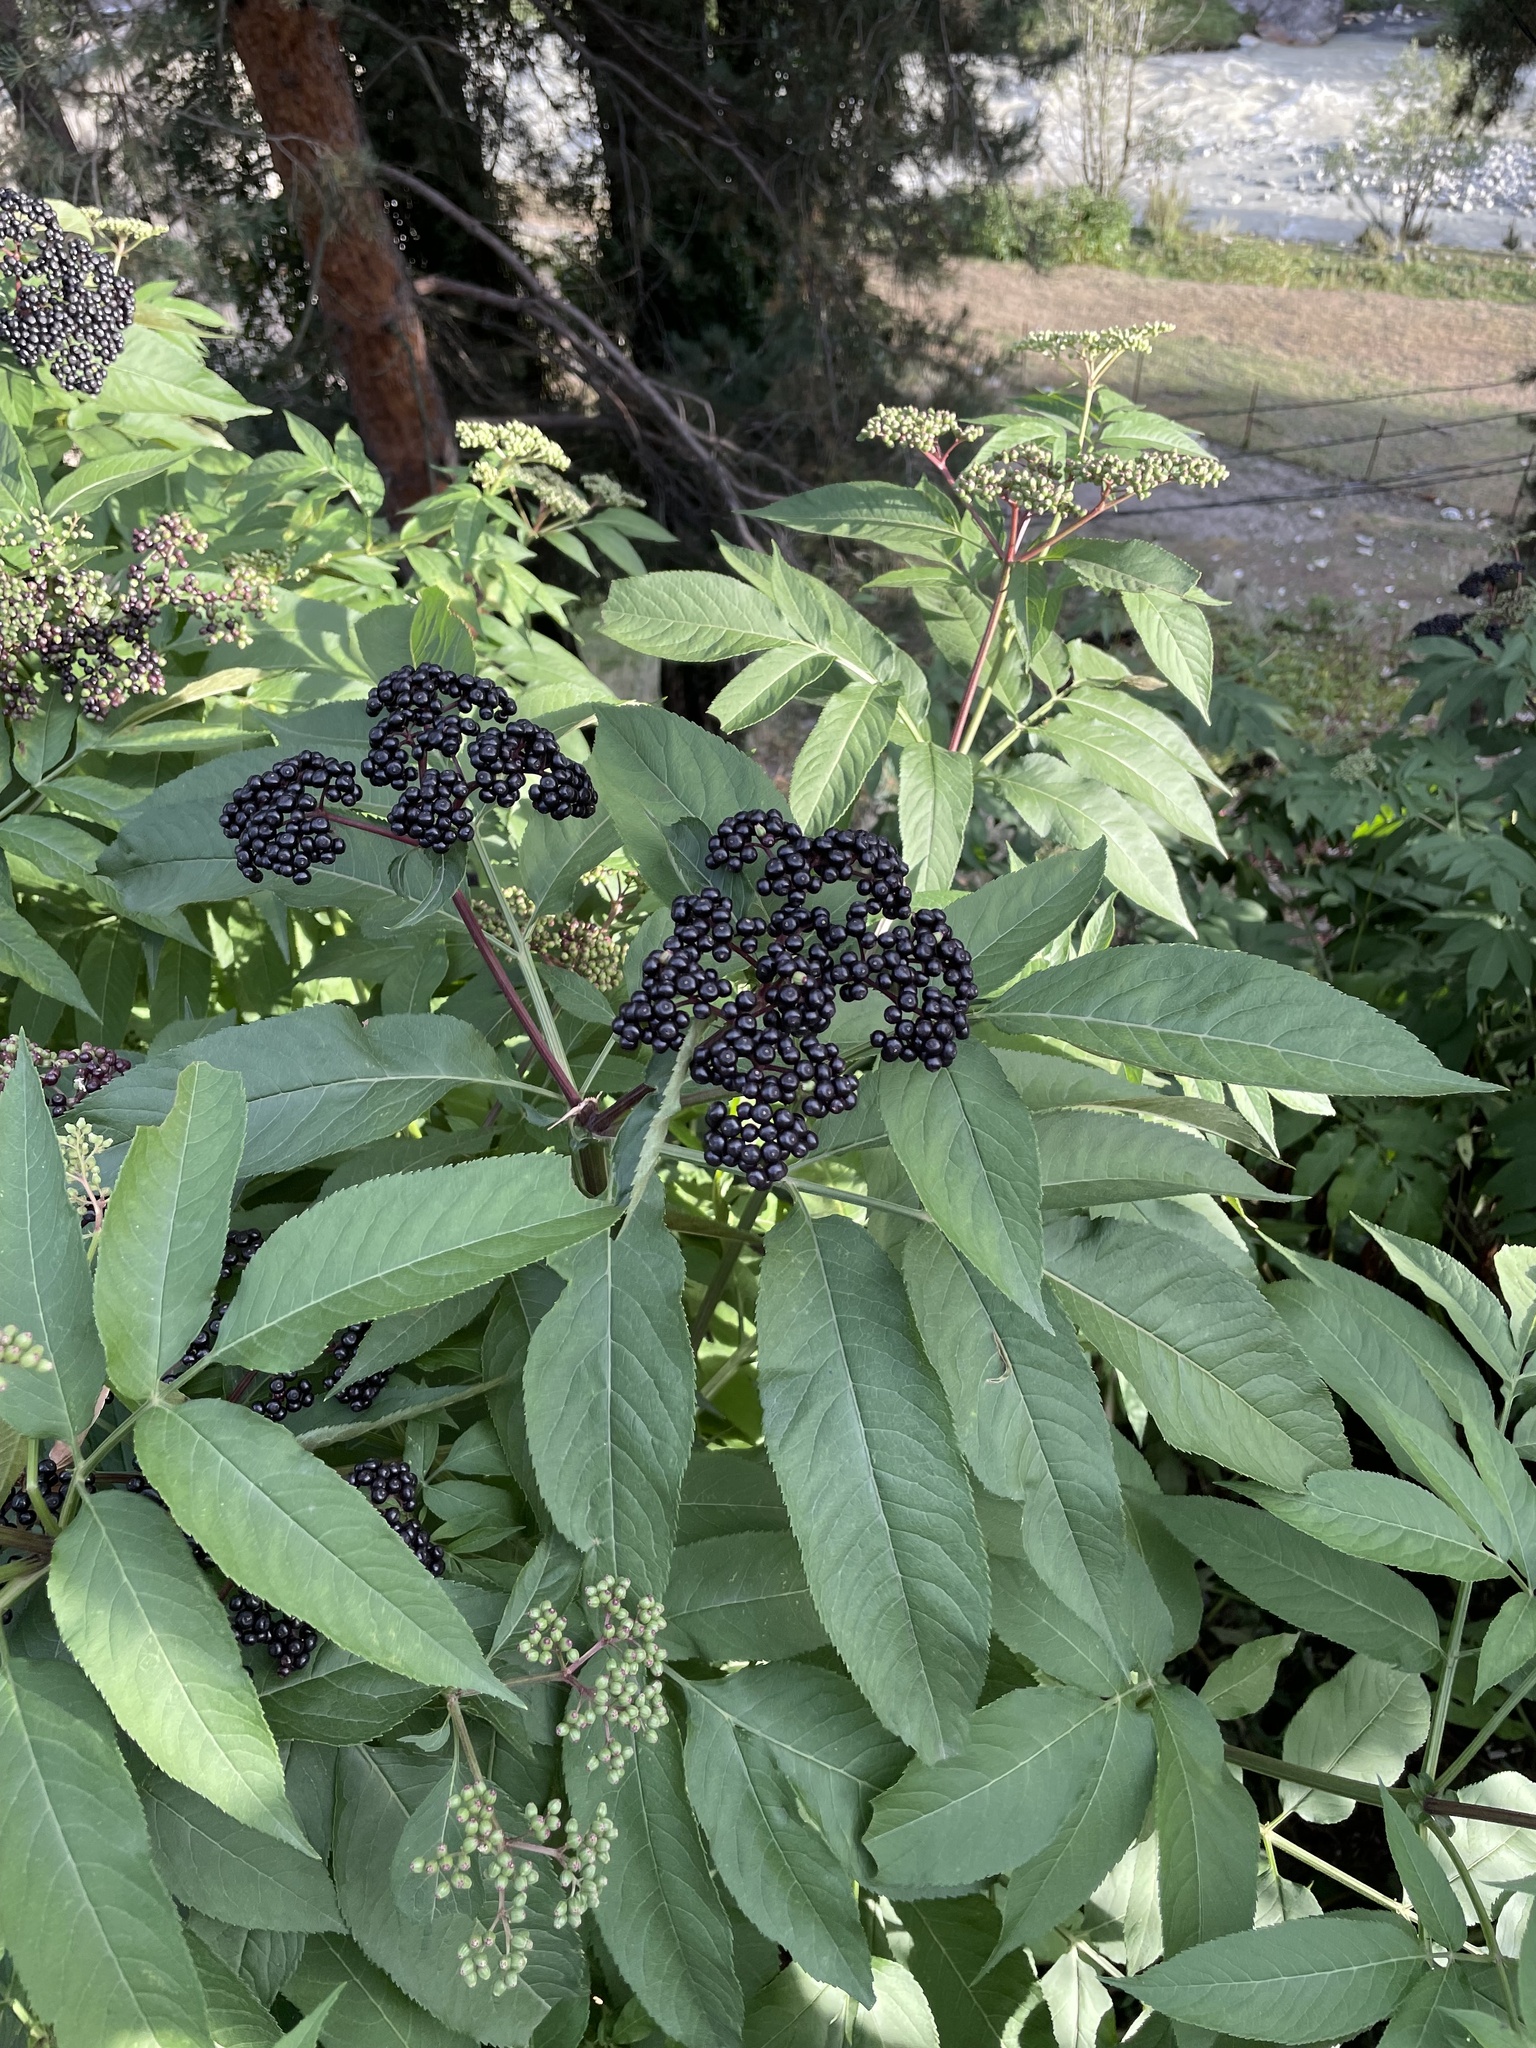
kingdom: Plantae
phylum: Tracheophyta
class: Magnoliopsida
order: Dipsacales
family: Viburnaceae
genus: Sambucus
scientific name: Sambucus ebulus
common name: Dwarf elder
